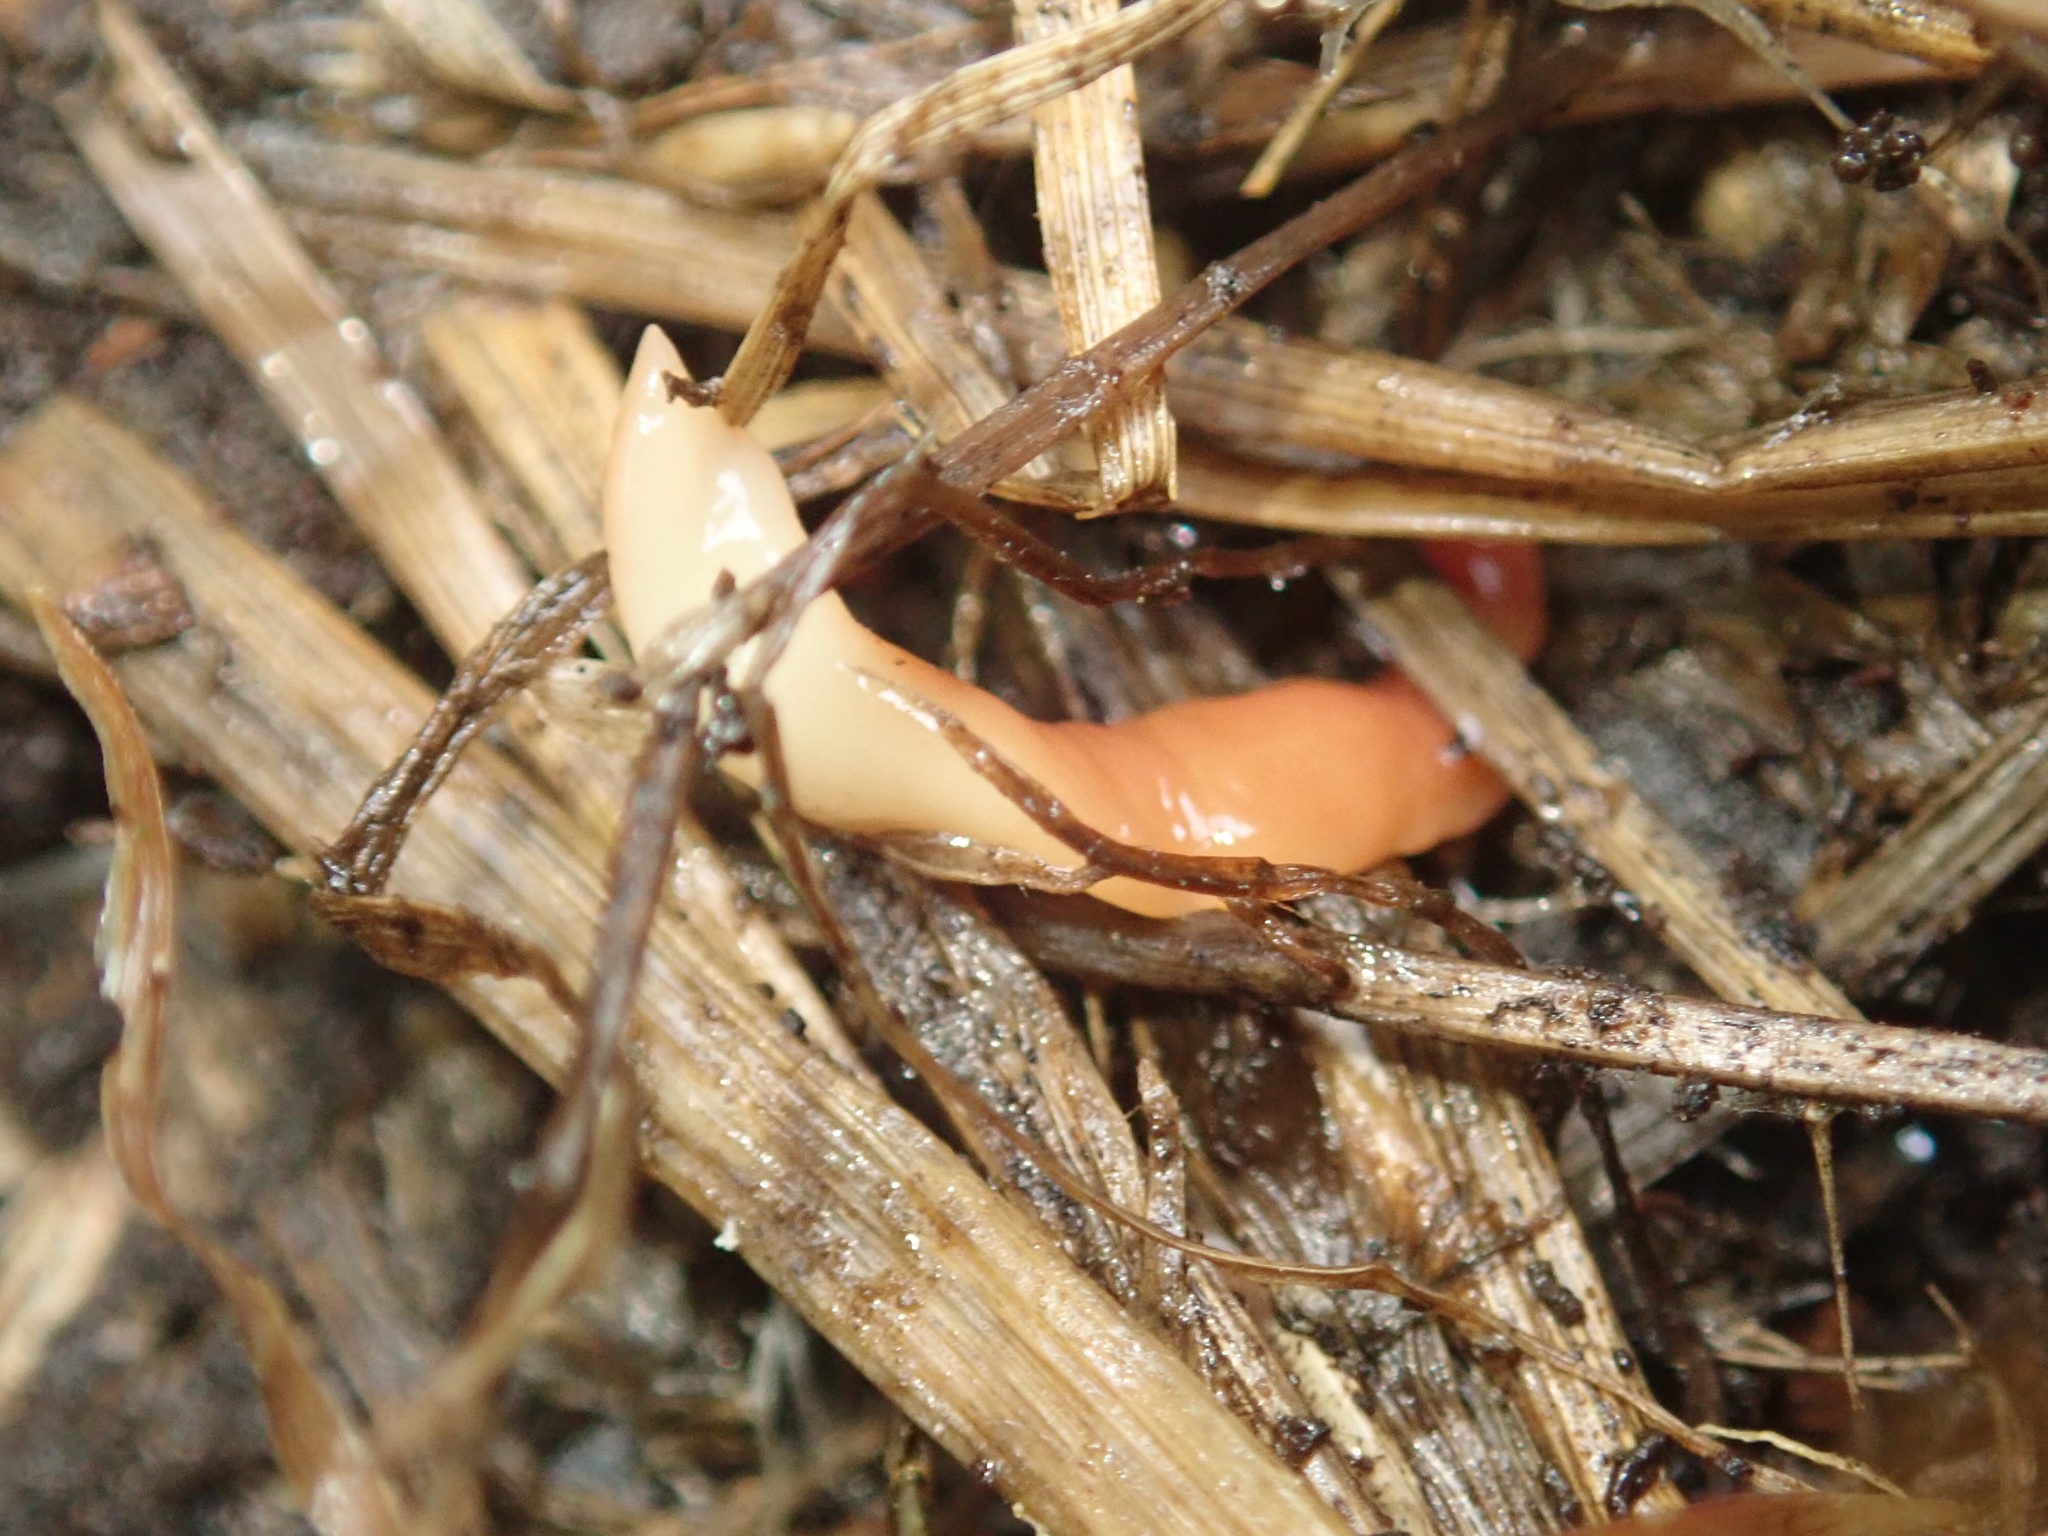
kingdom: Animalia
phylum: Platyhelminthes
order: Tricladida
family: Geoplanidae
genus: Australoplana
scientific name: Australoplana sanguinea
